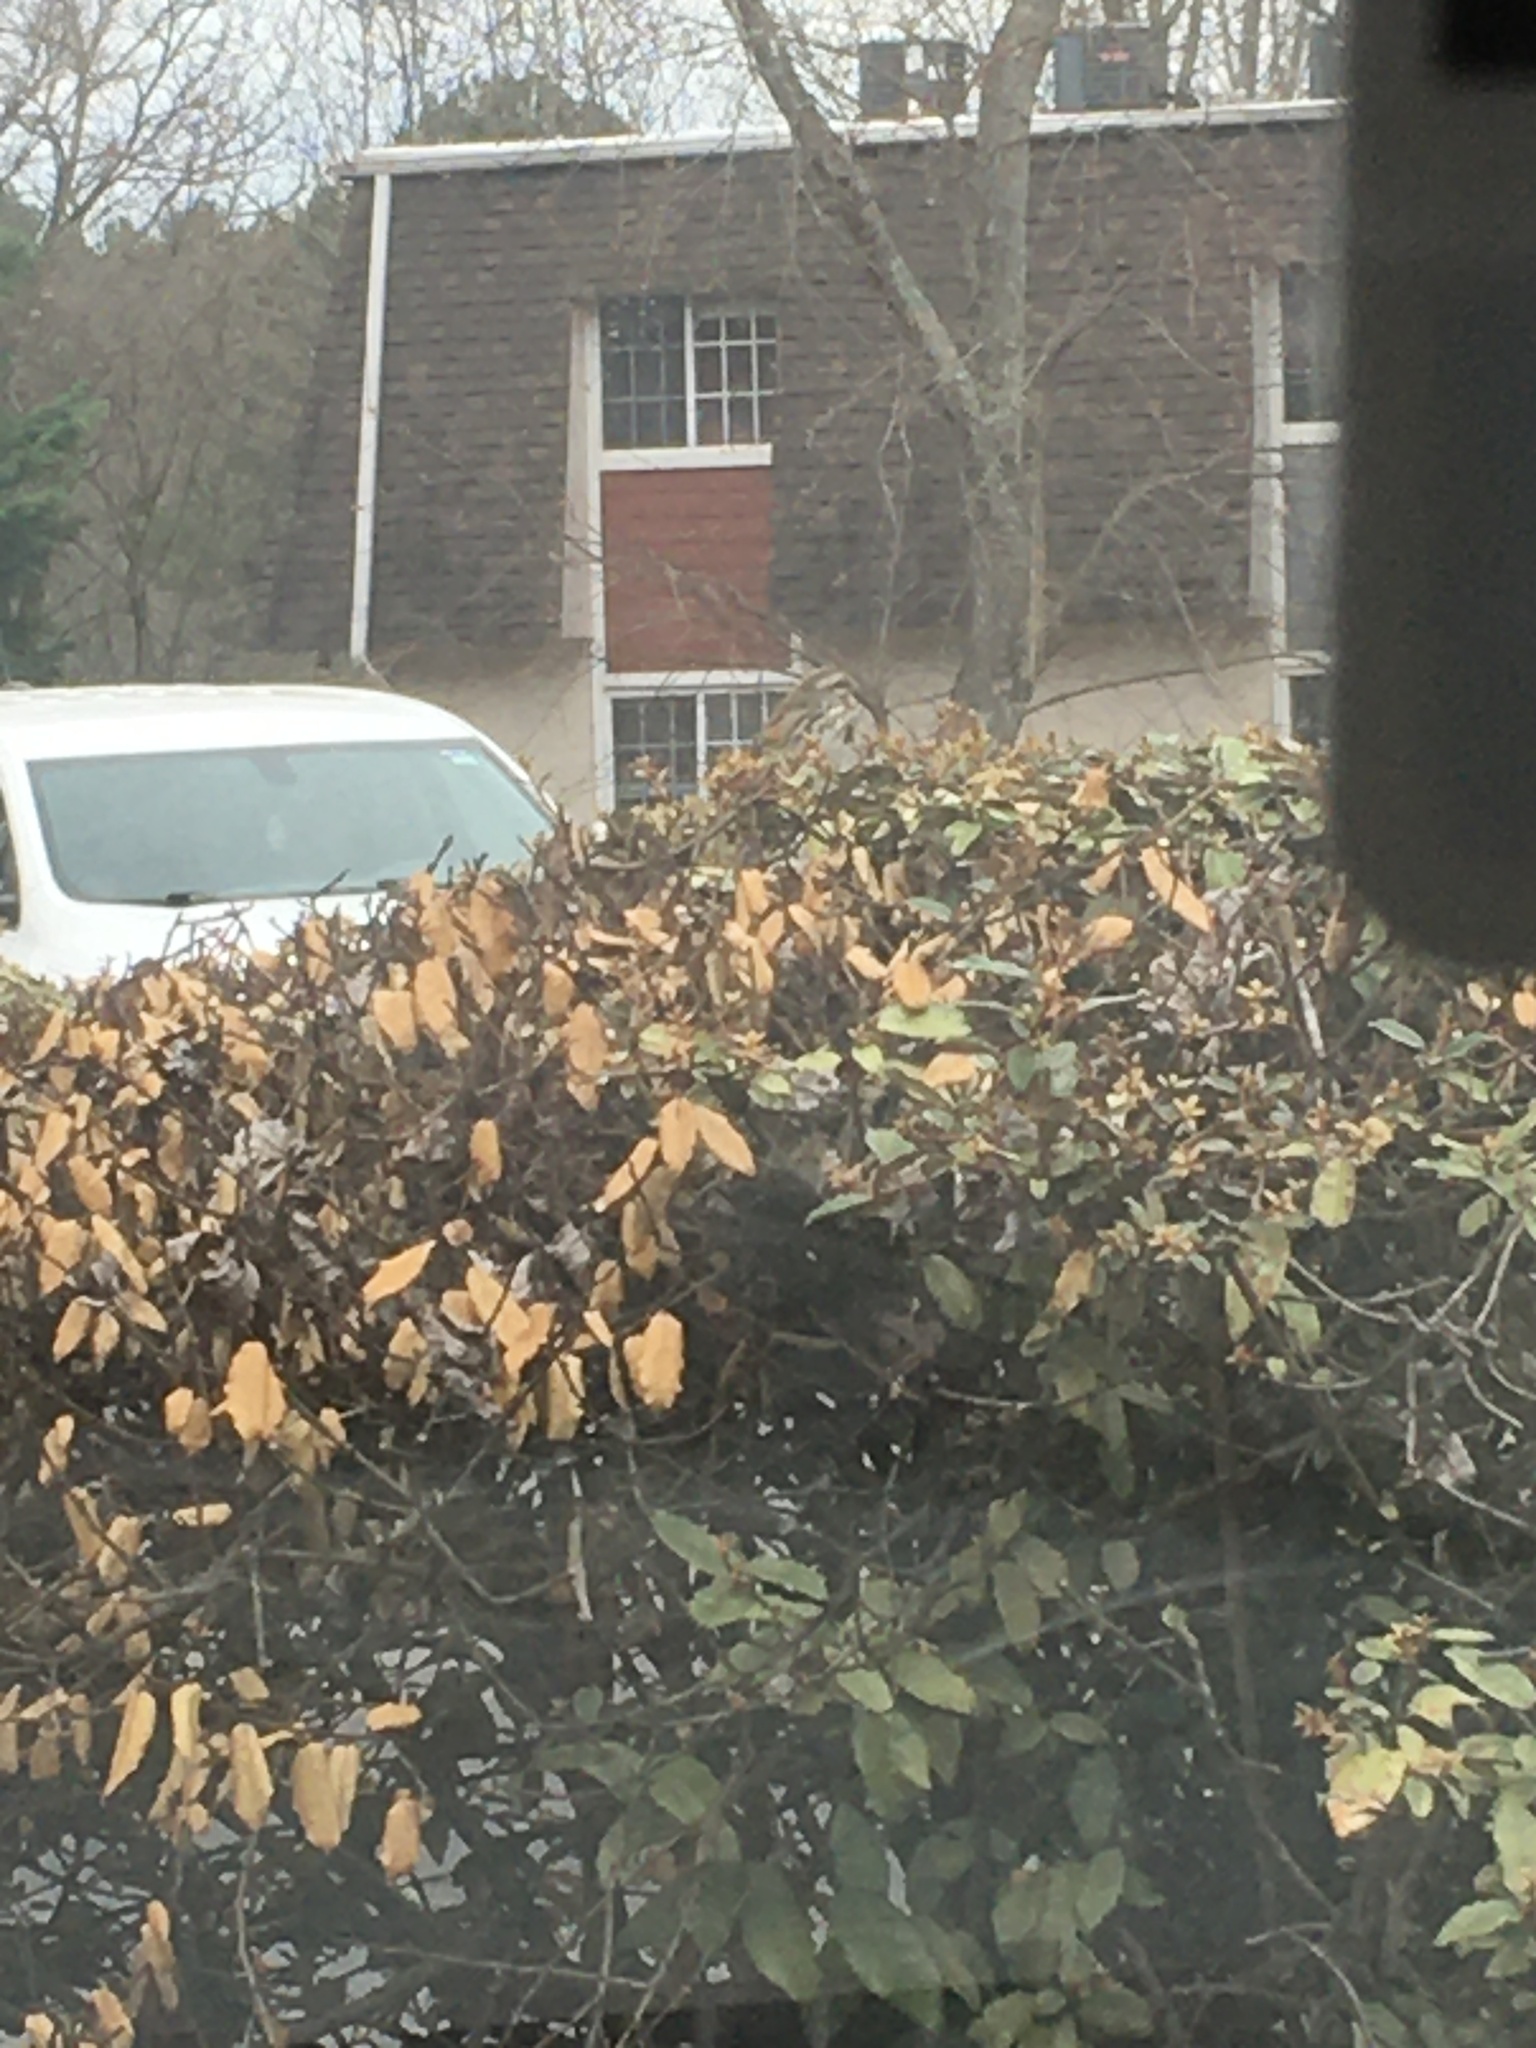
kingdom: Animalia
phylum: Chordata
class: Aves
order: Passeriformes
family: Passerellidae
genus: Melospiza
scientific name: Melospiza melodia
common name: Song sparrow
